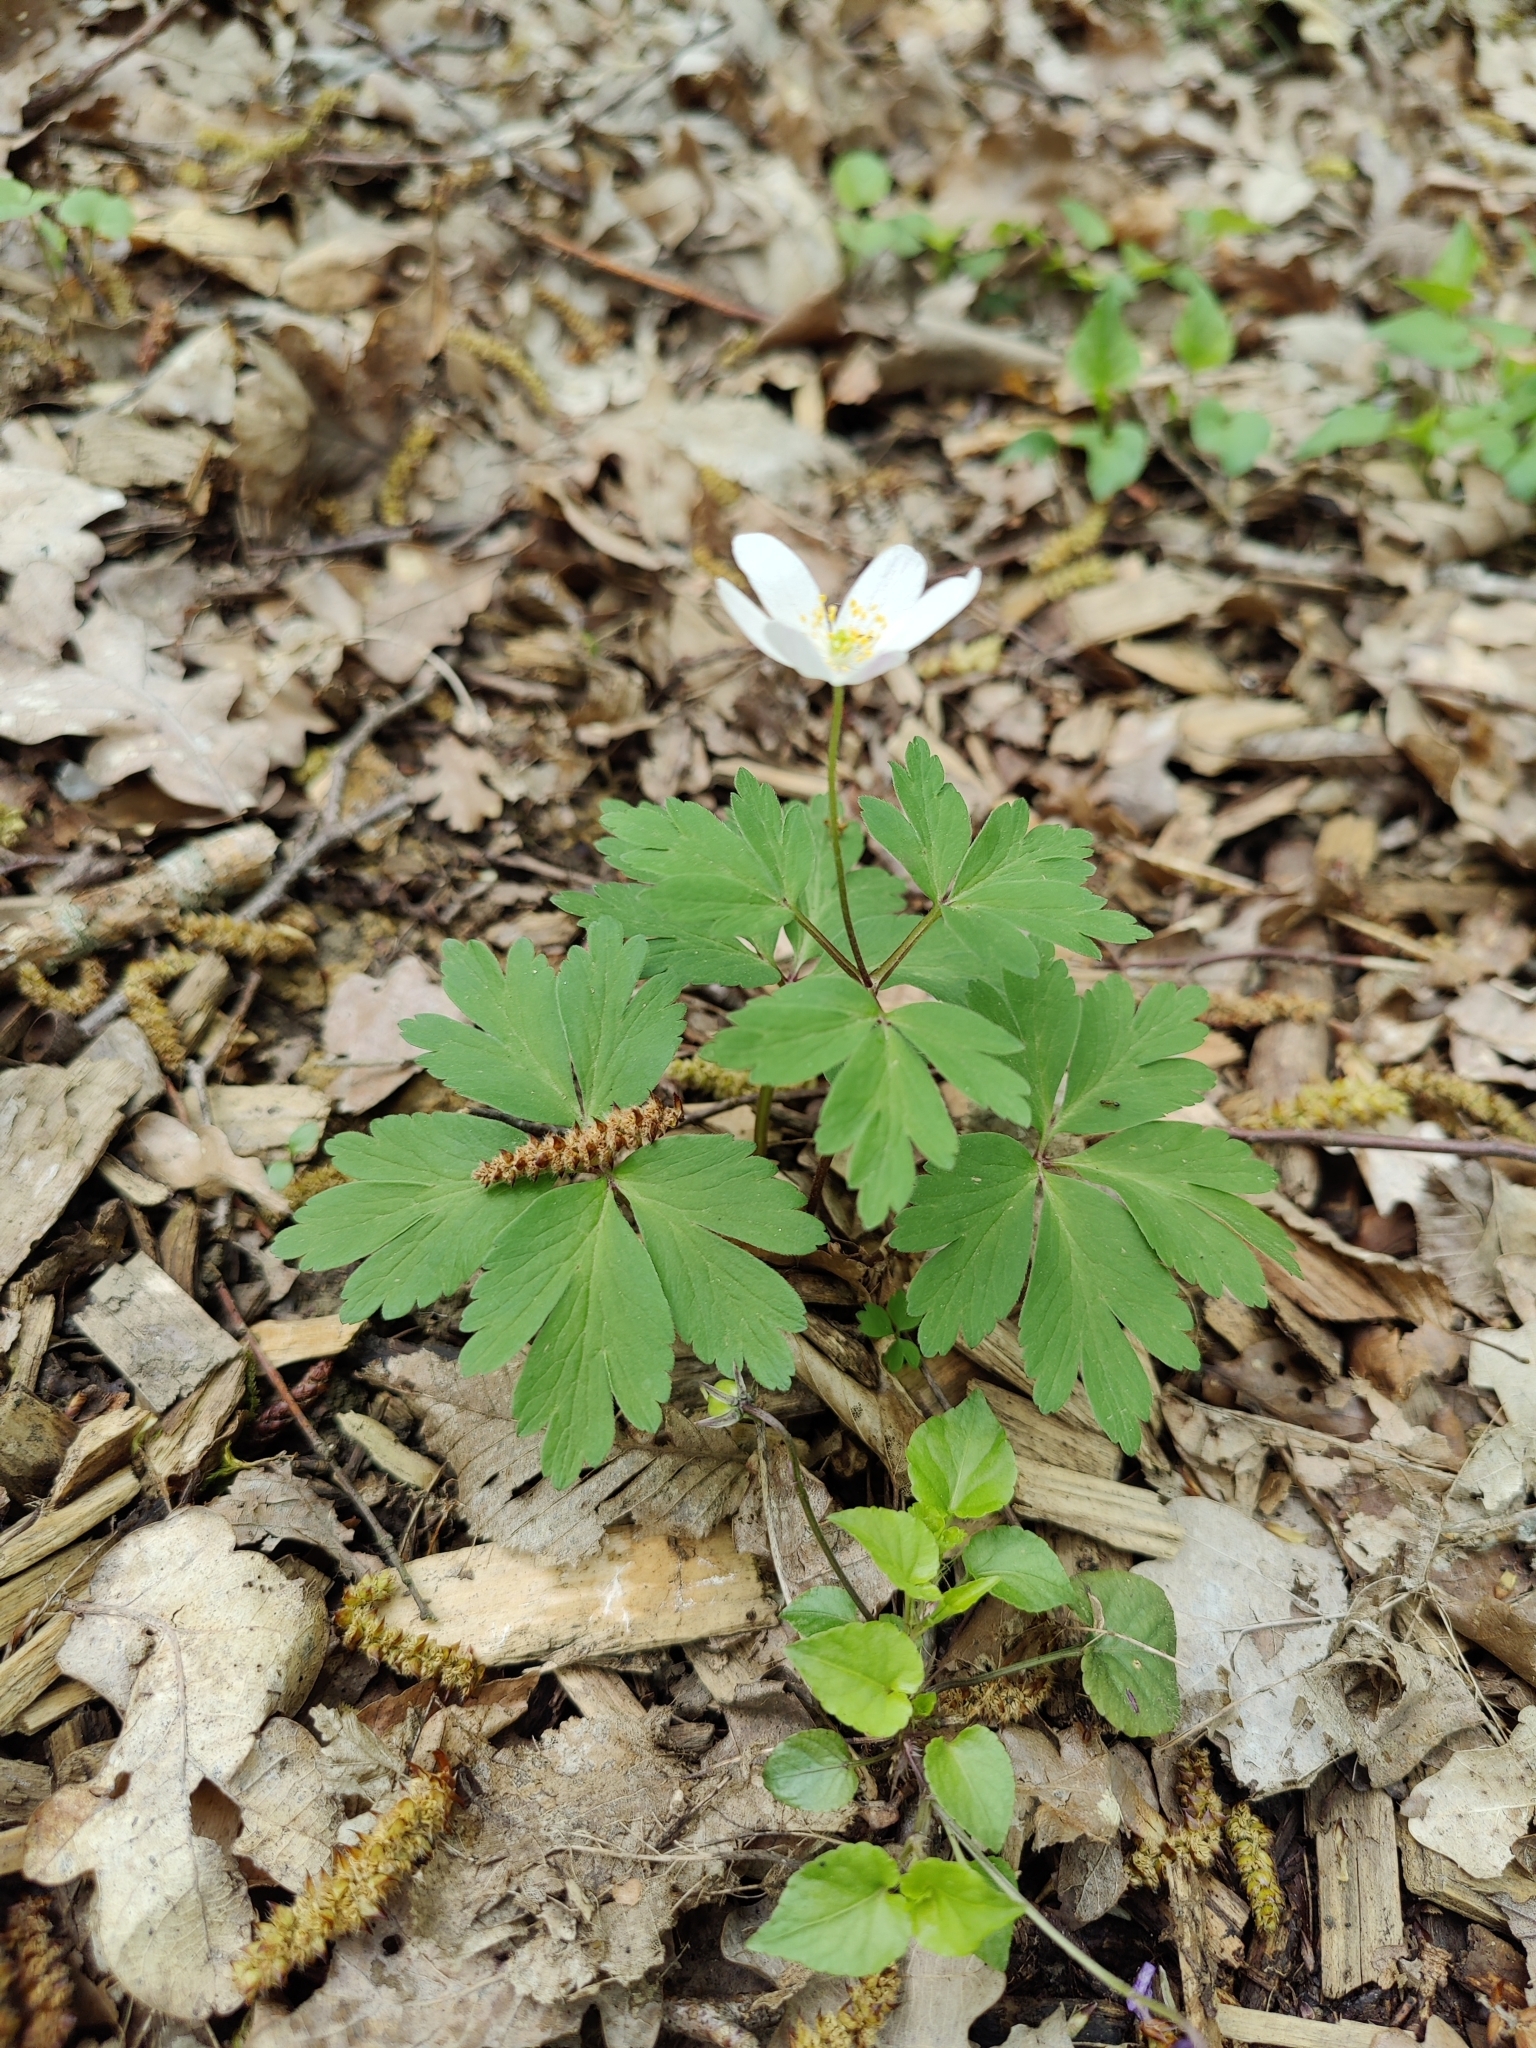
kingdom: Plantae
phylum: Tracheophyta
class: Magnoliopsida
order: Ranunculales
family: Ranunculaceae
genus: Anemone
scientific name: Anemone nemorosa
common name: Wood anemone
